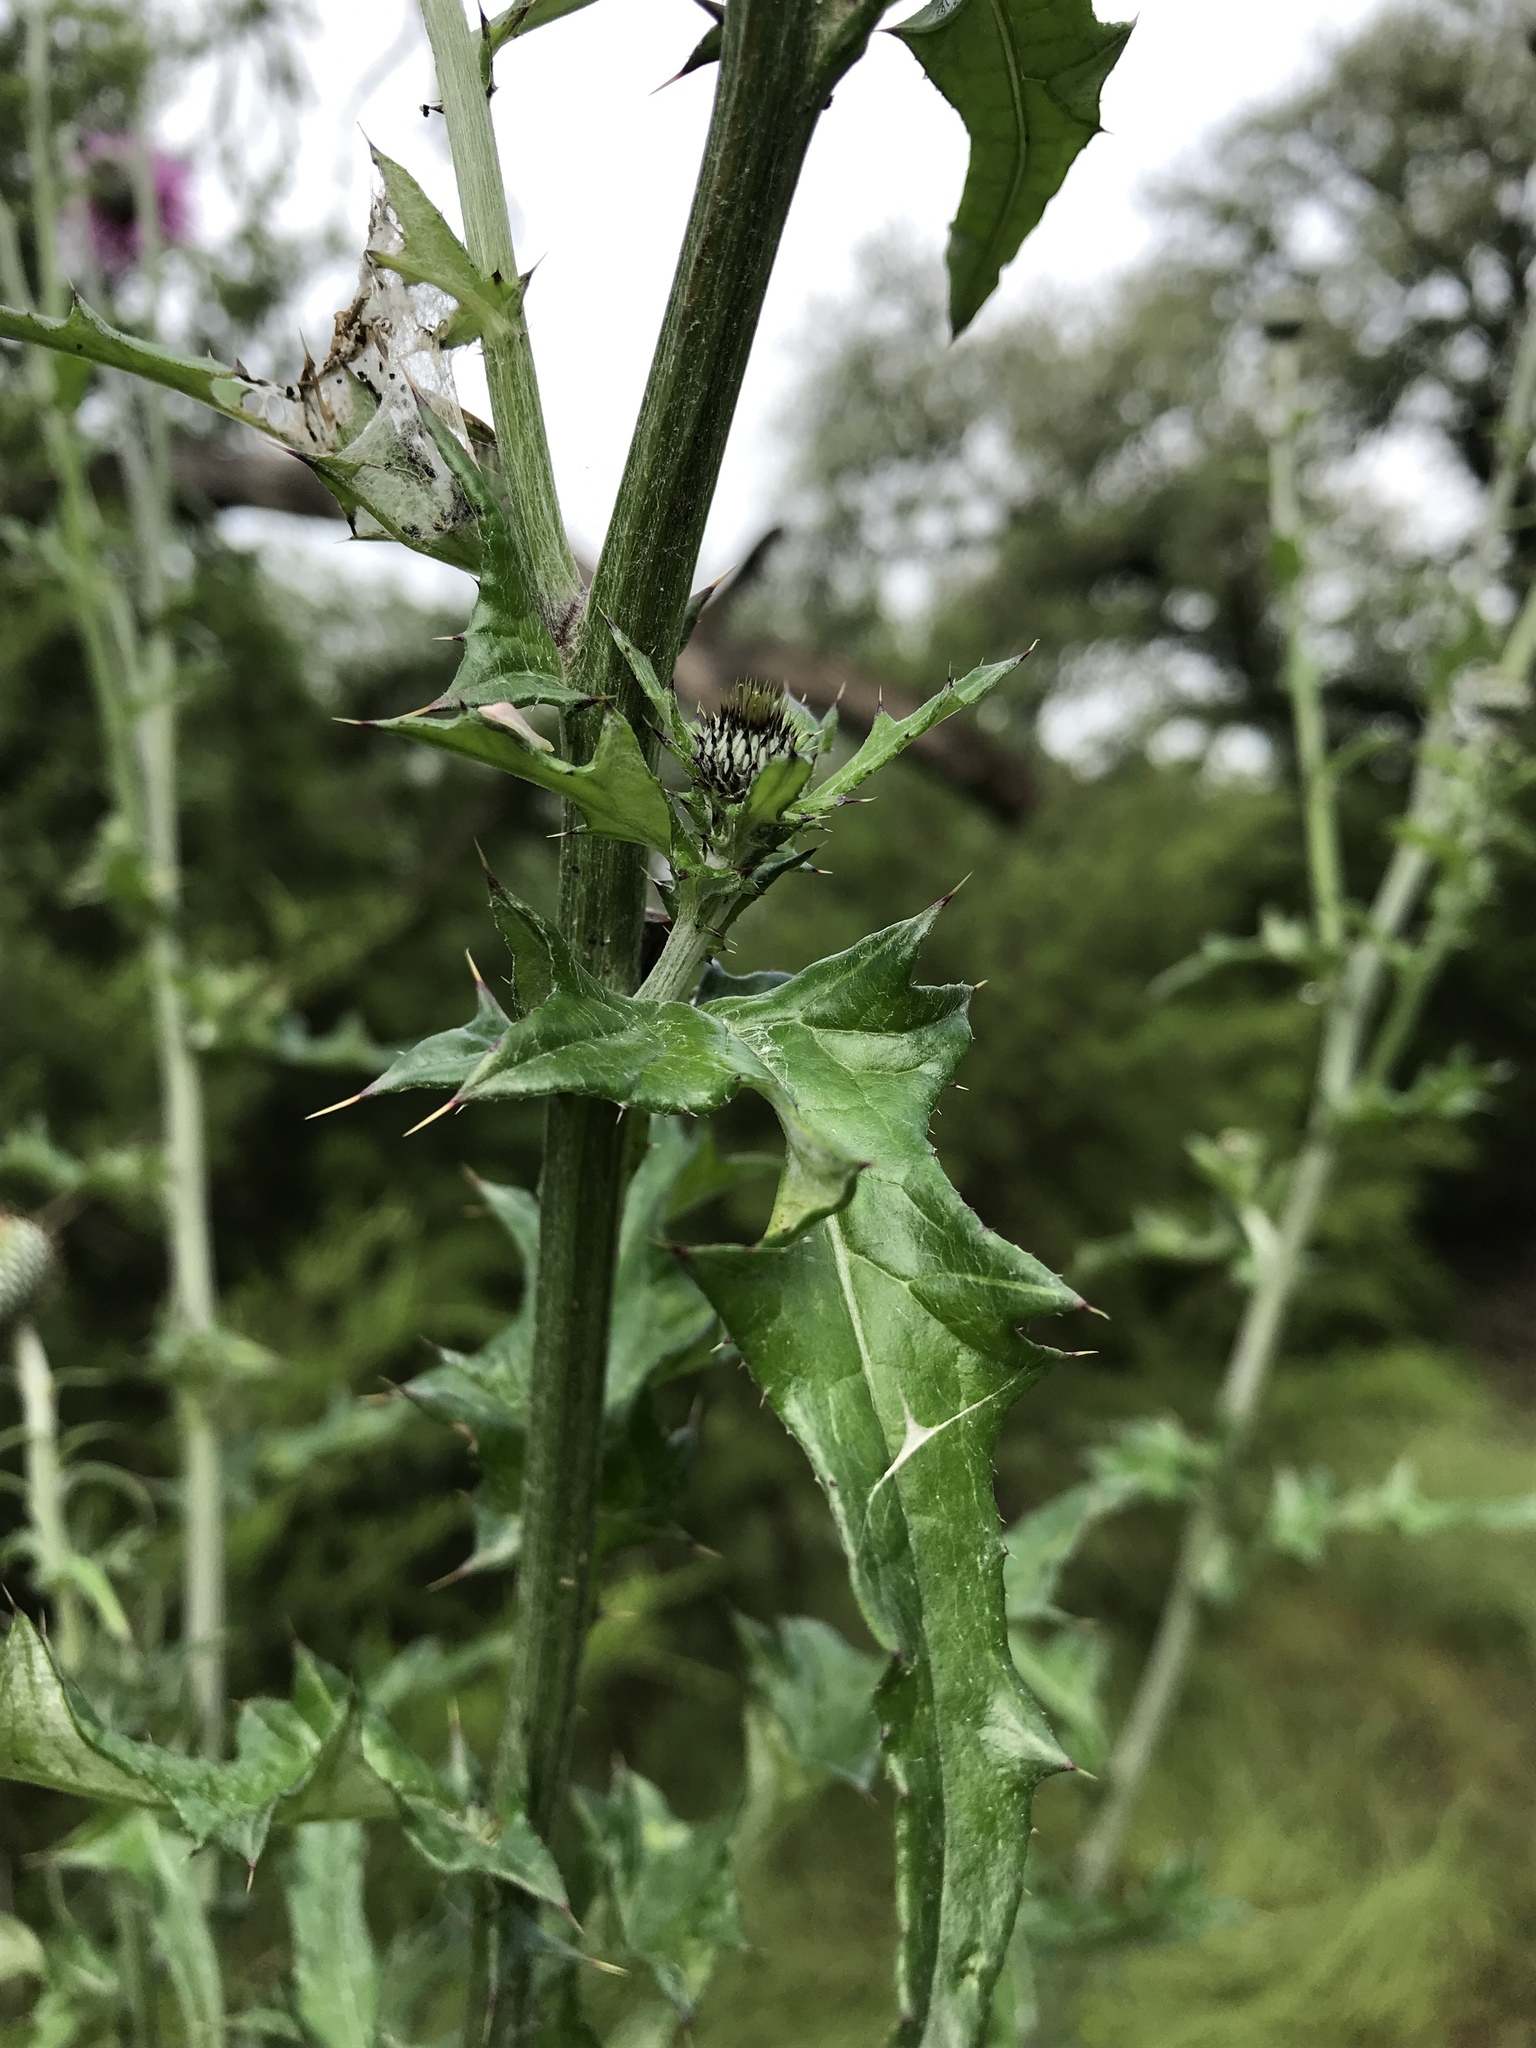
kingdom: Plantae
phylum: Tracheophyta
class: Magnoliopsida
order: Asterales
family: Asteraceae
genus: Cirsium
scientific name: Cirsium texanum
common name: Texas purple thistle
